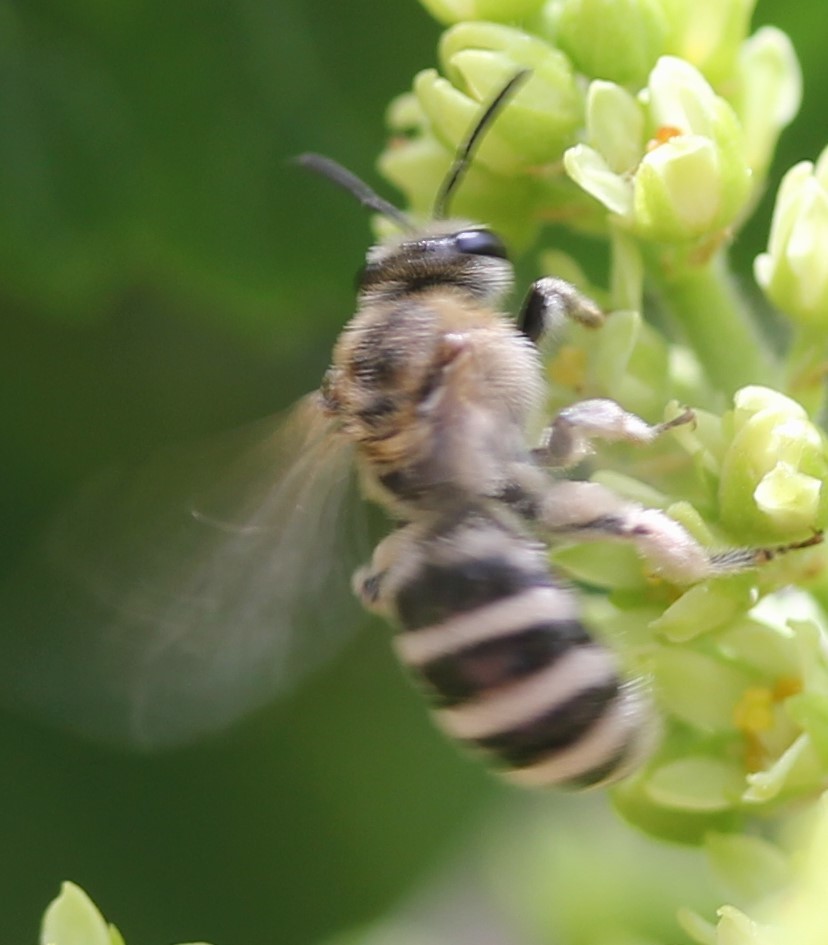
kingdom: Animalia
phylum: Arthropoda
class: Insecta
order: Hymenoptera
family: Halictidae
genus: Lasioglossum
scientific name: Lasioglossum sisymbrii
